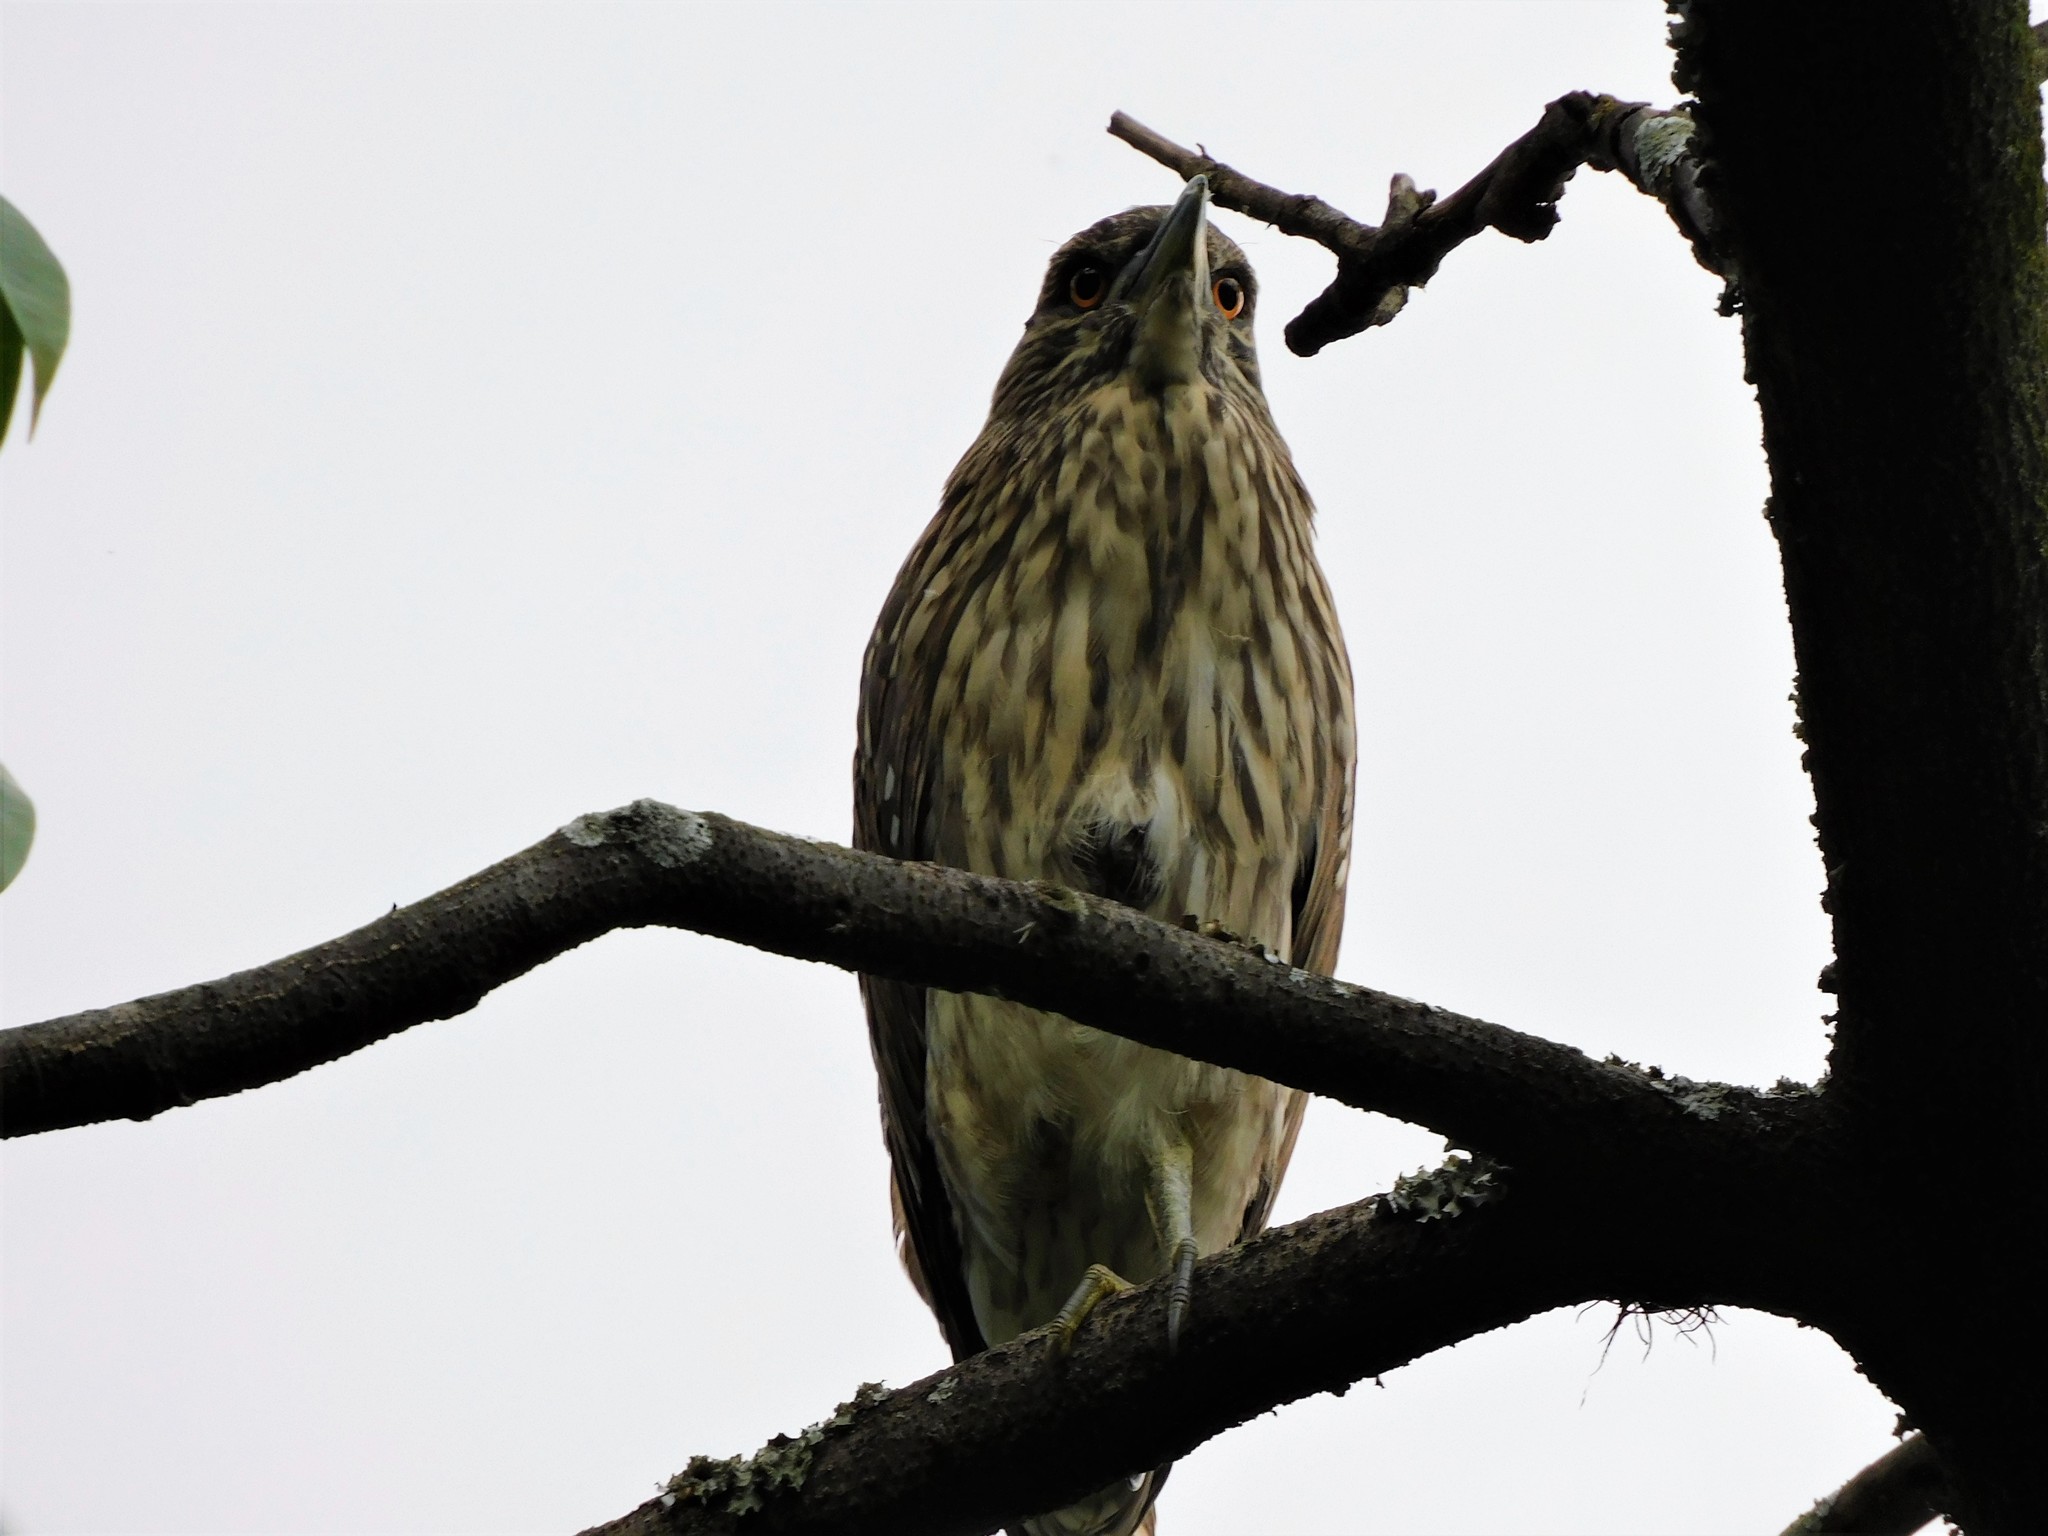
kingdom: Animalia
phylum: Chordata
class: Aves
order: Pelecaniformes
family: Ardeidae
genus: Nycticorax
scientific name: Nycticorax nycticorax
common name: Black-crowned night heron
